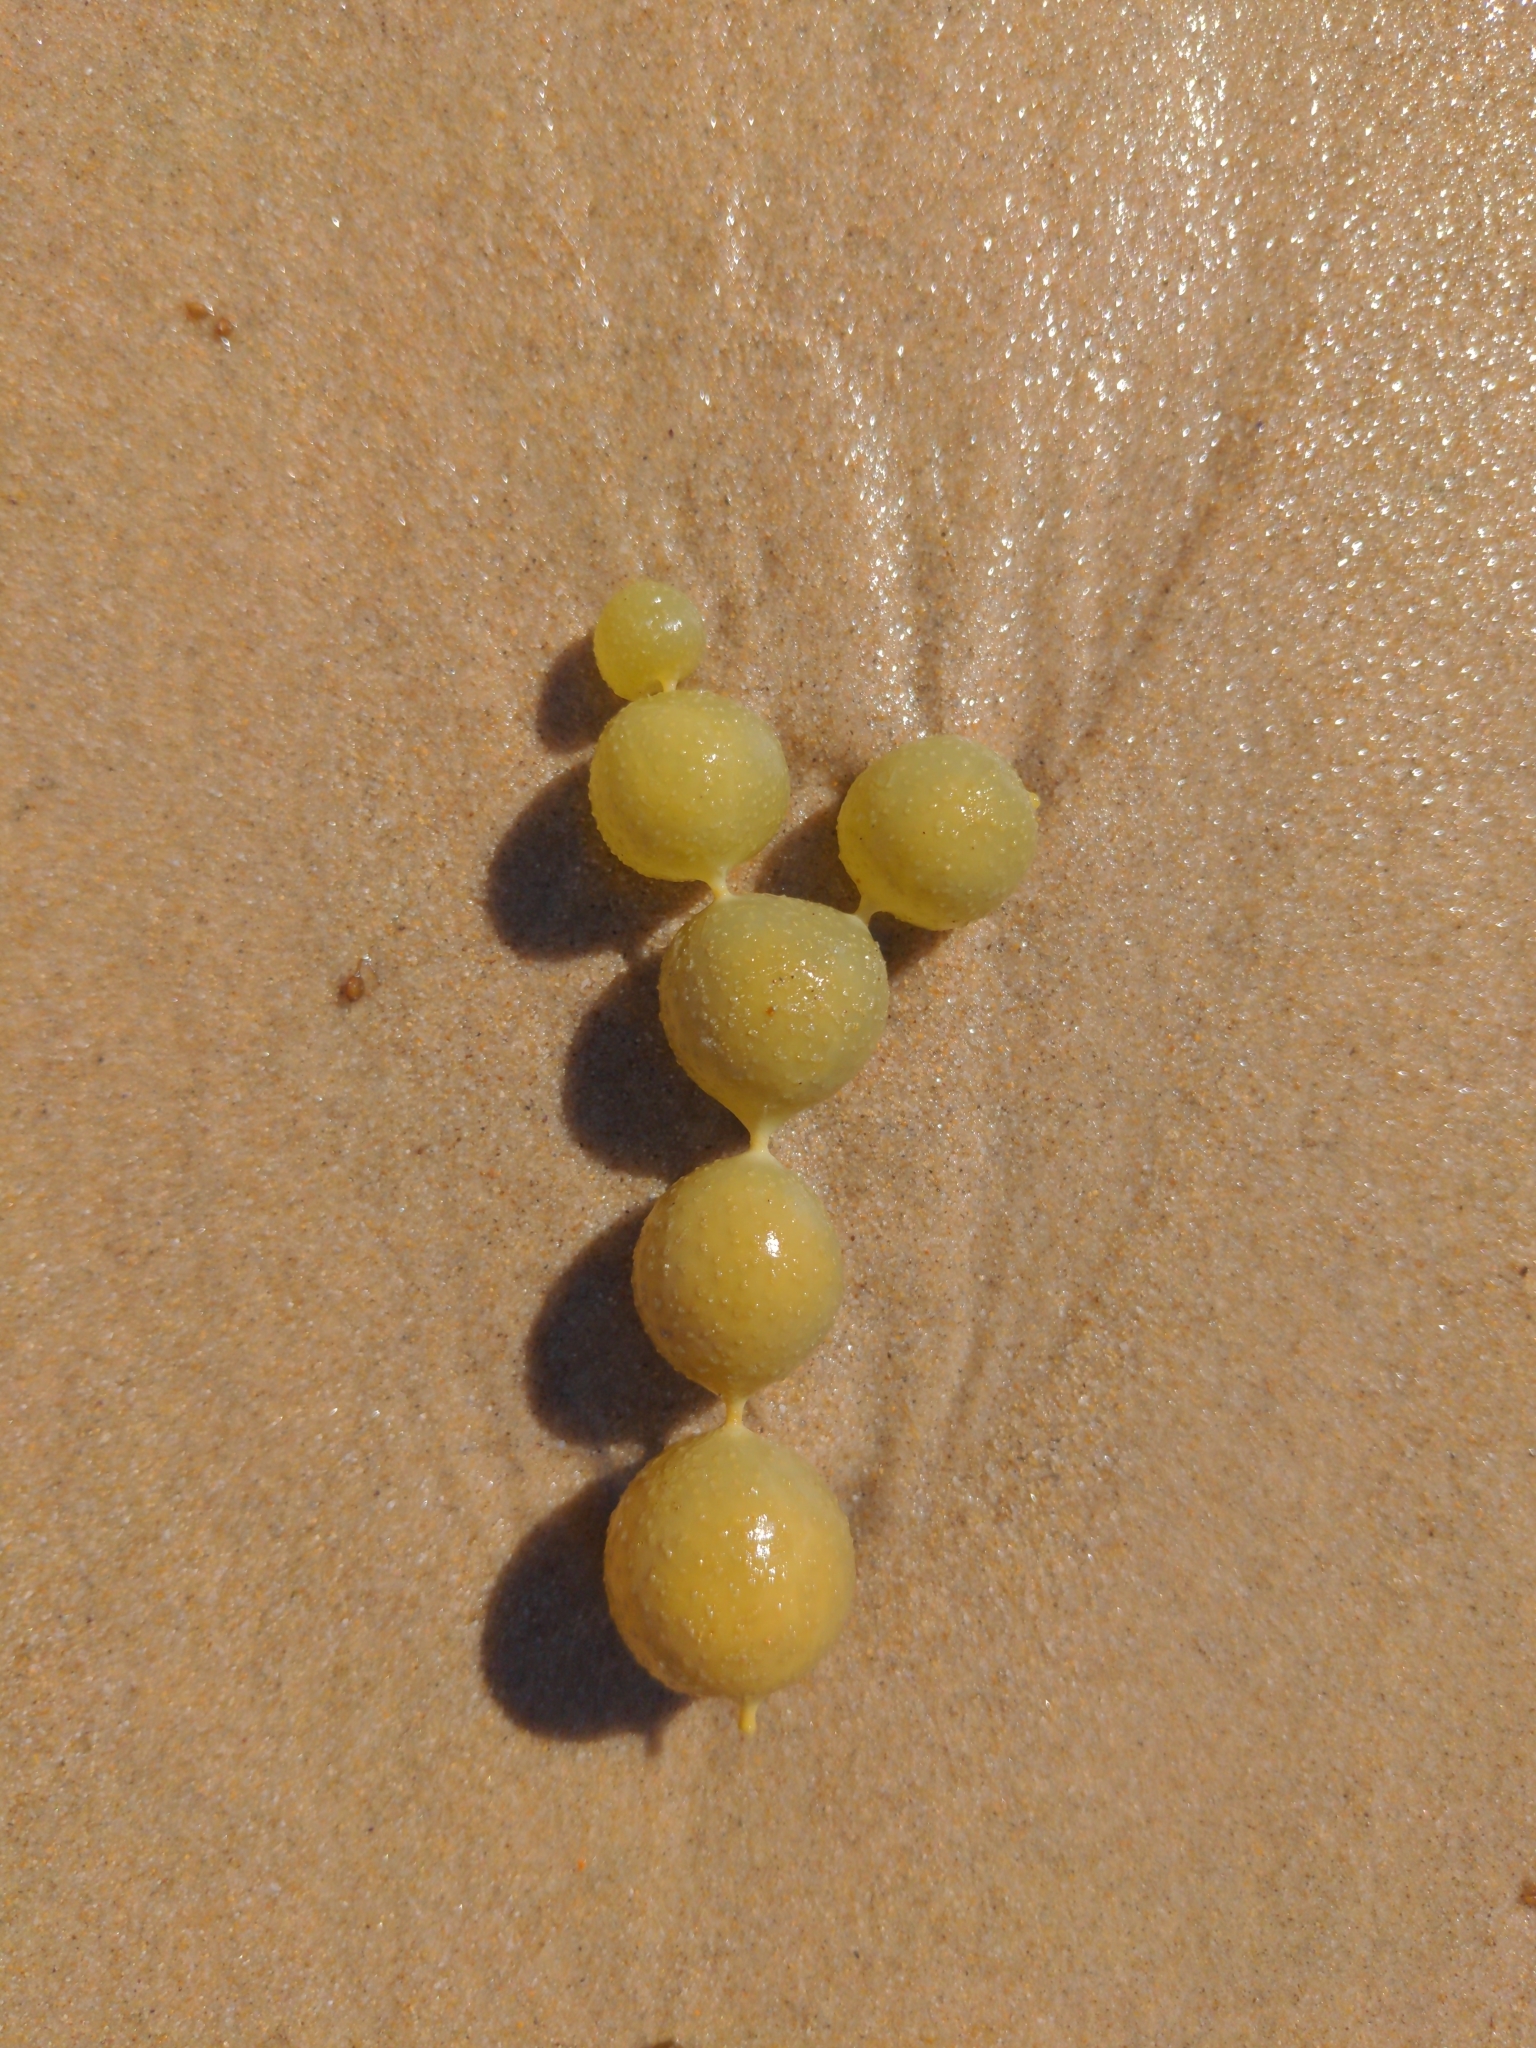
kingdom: Chromista
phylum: Ochrophyta
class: Phaeophyceae
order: Fucales
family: Hormosiraceae
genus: Hormosira
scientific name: Hormosira banksii
